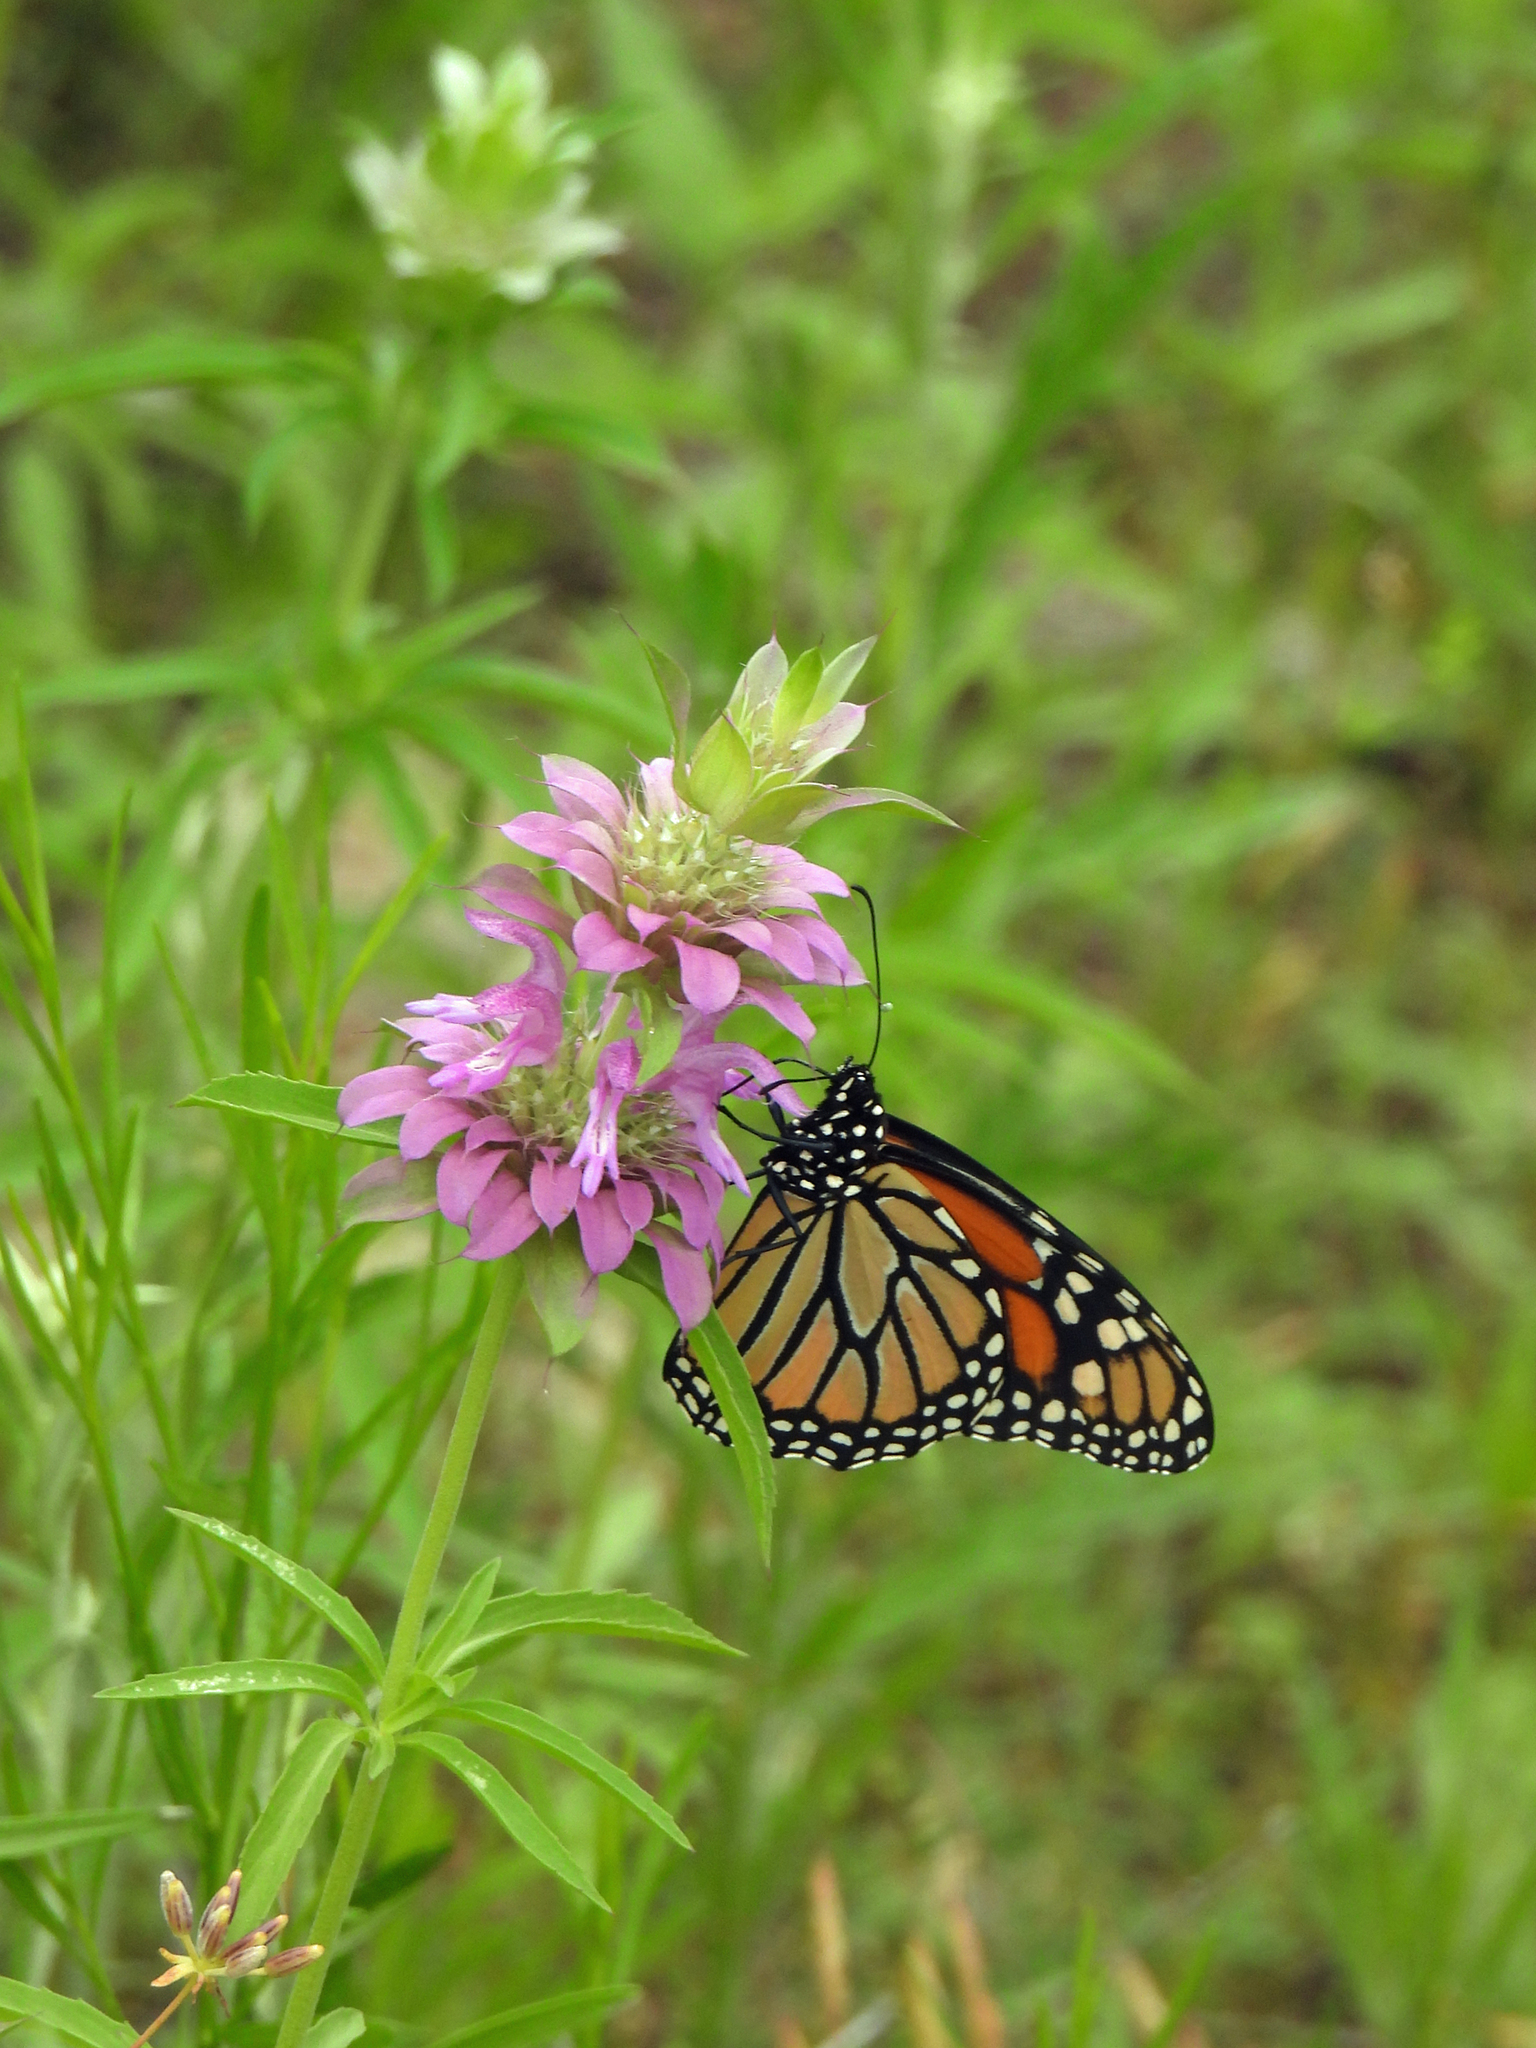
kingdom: Animalia
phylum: Arthropoda
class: Insecta
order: Lepidoptera
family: Nymphalidae
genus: Danaus
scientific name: Danaus plexippus
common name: Monarch
